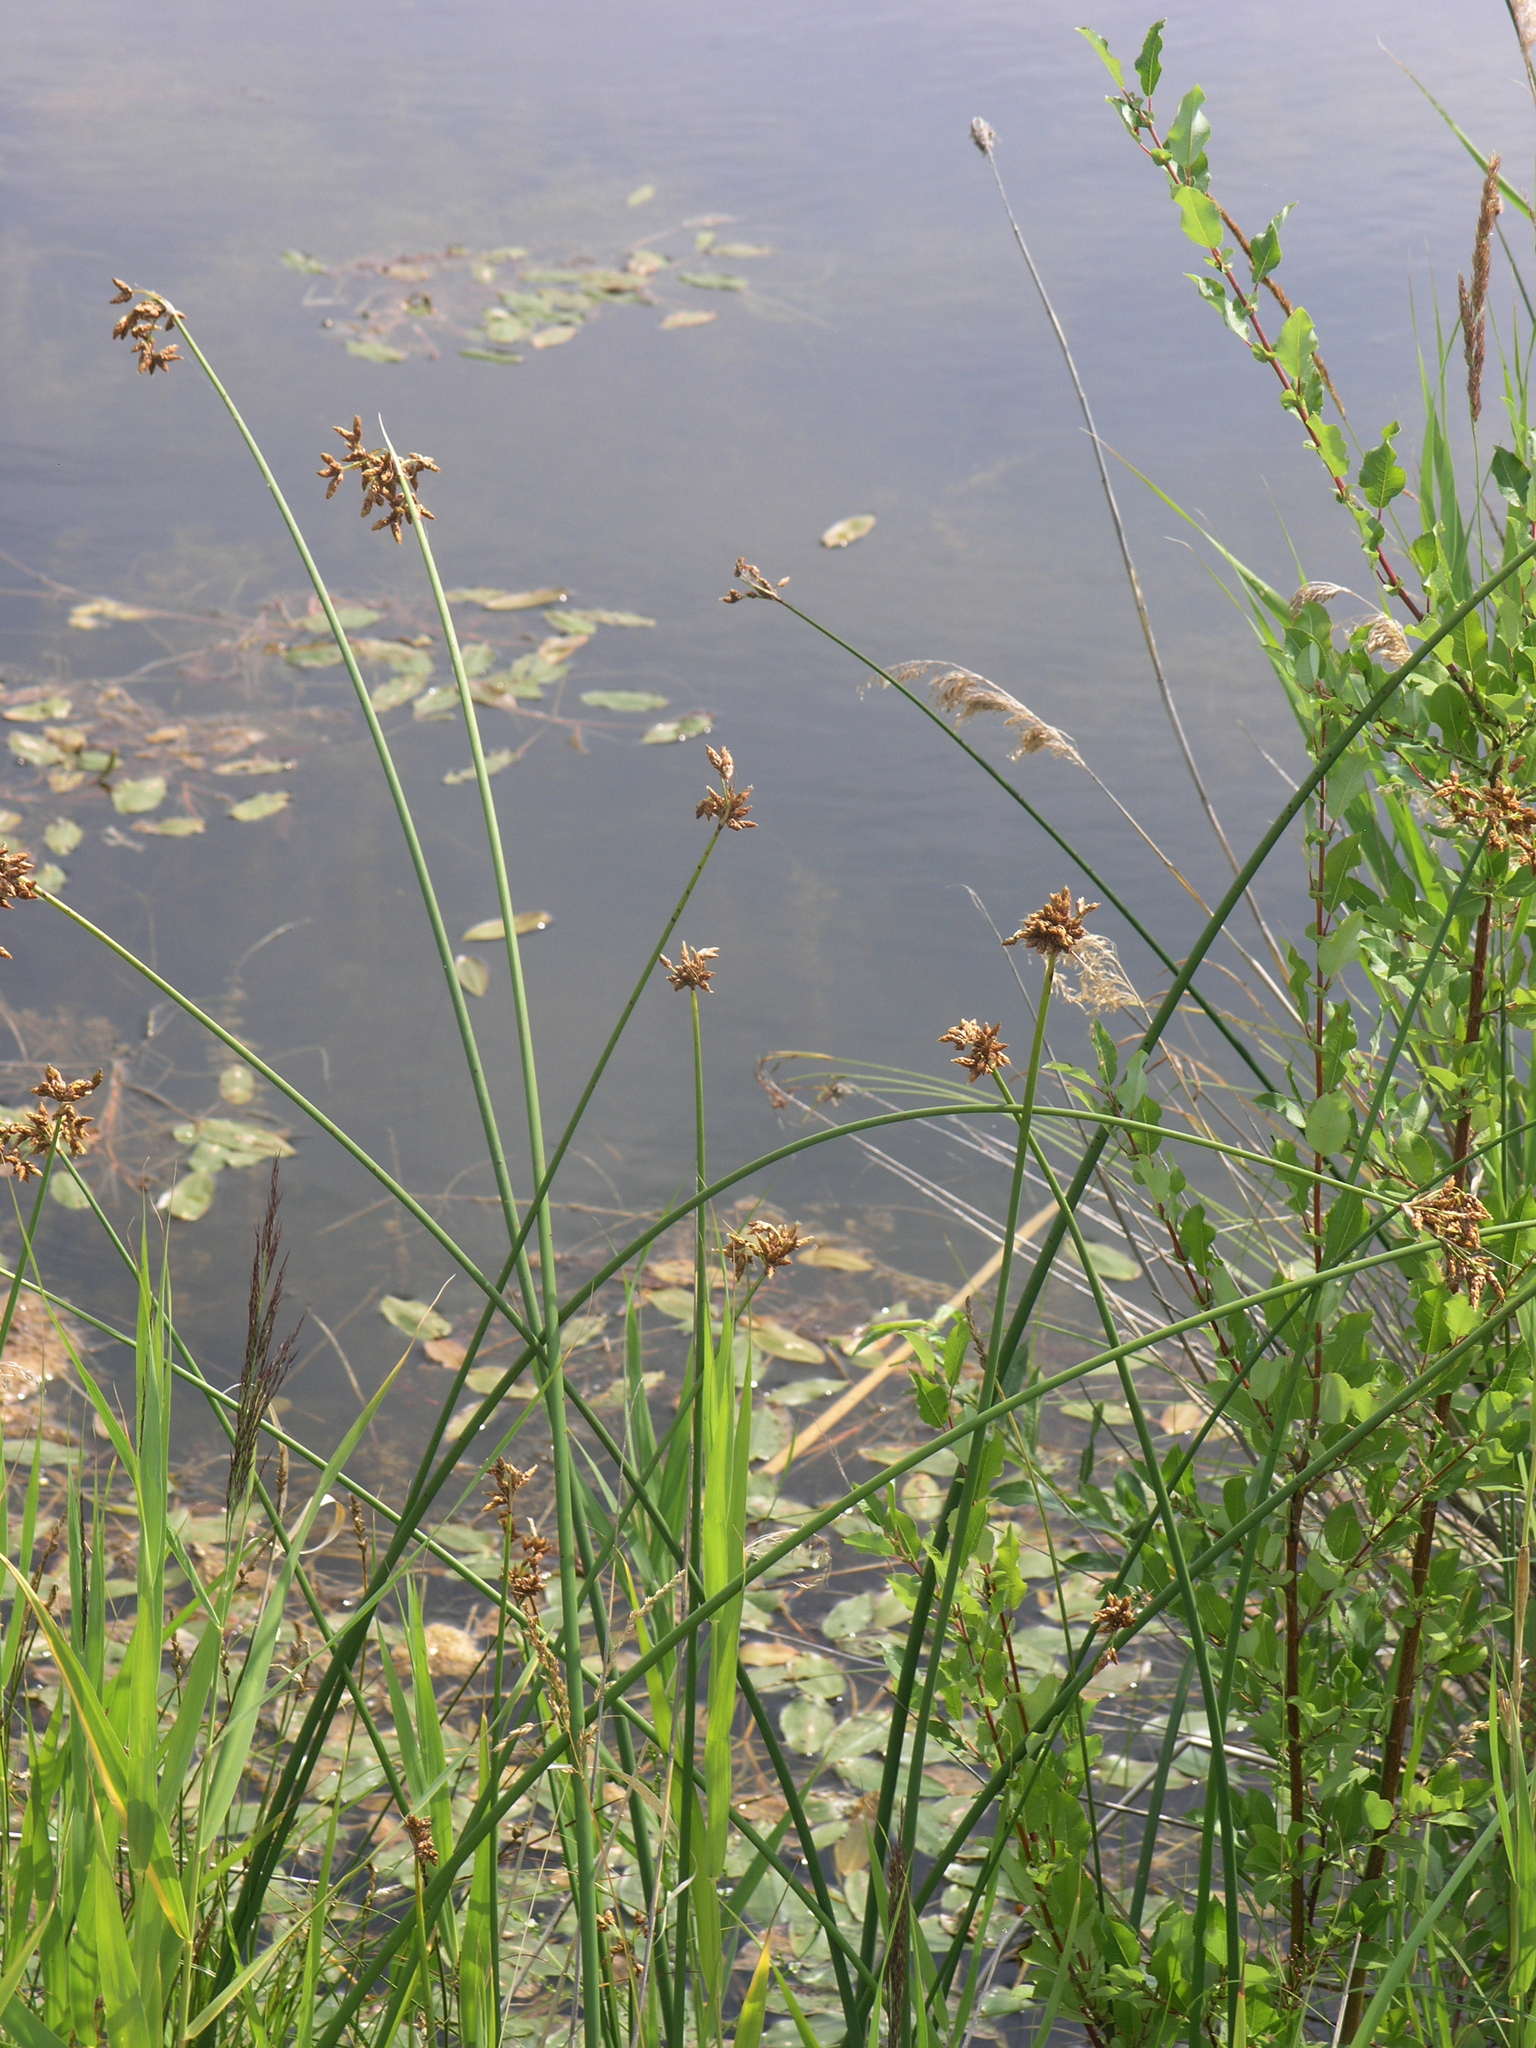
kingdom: Plantae
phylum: Tracheophyta
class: Liliopsida
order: Poales
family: Cyperaceae
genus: Schoenoplectus
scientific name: Schoenoplectus lacustris
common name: Common club-rush
